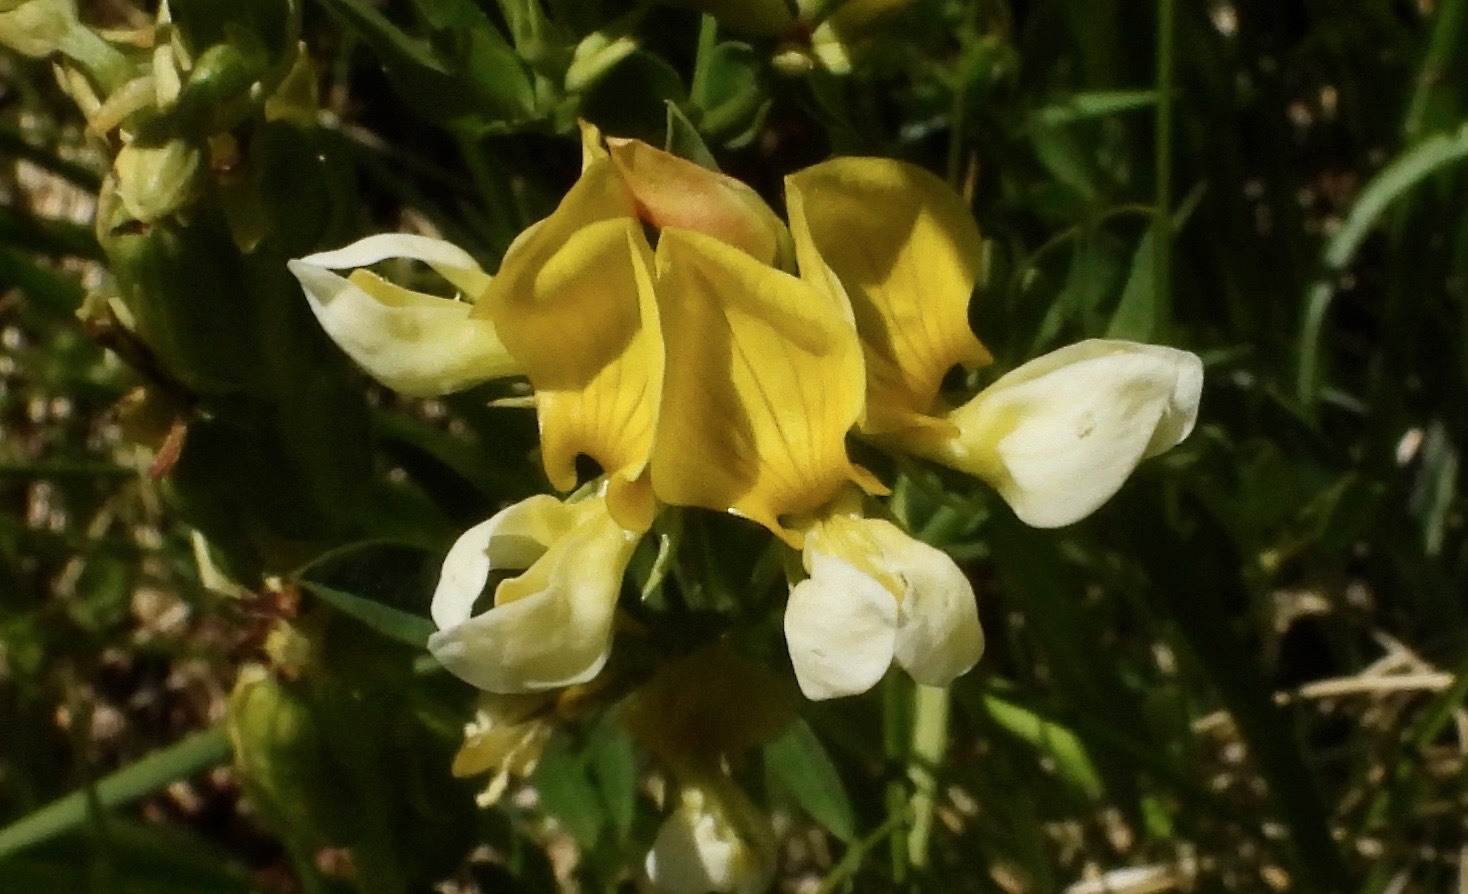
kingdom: Plantae
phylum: Tracheophyta
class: Magnoliopsida
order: Fabales
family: Fabaceae
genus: Hosackia
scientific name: Hosackia oblongifolia
